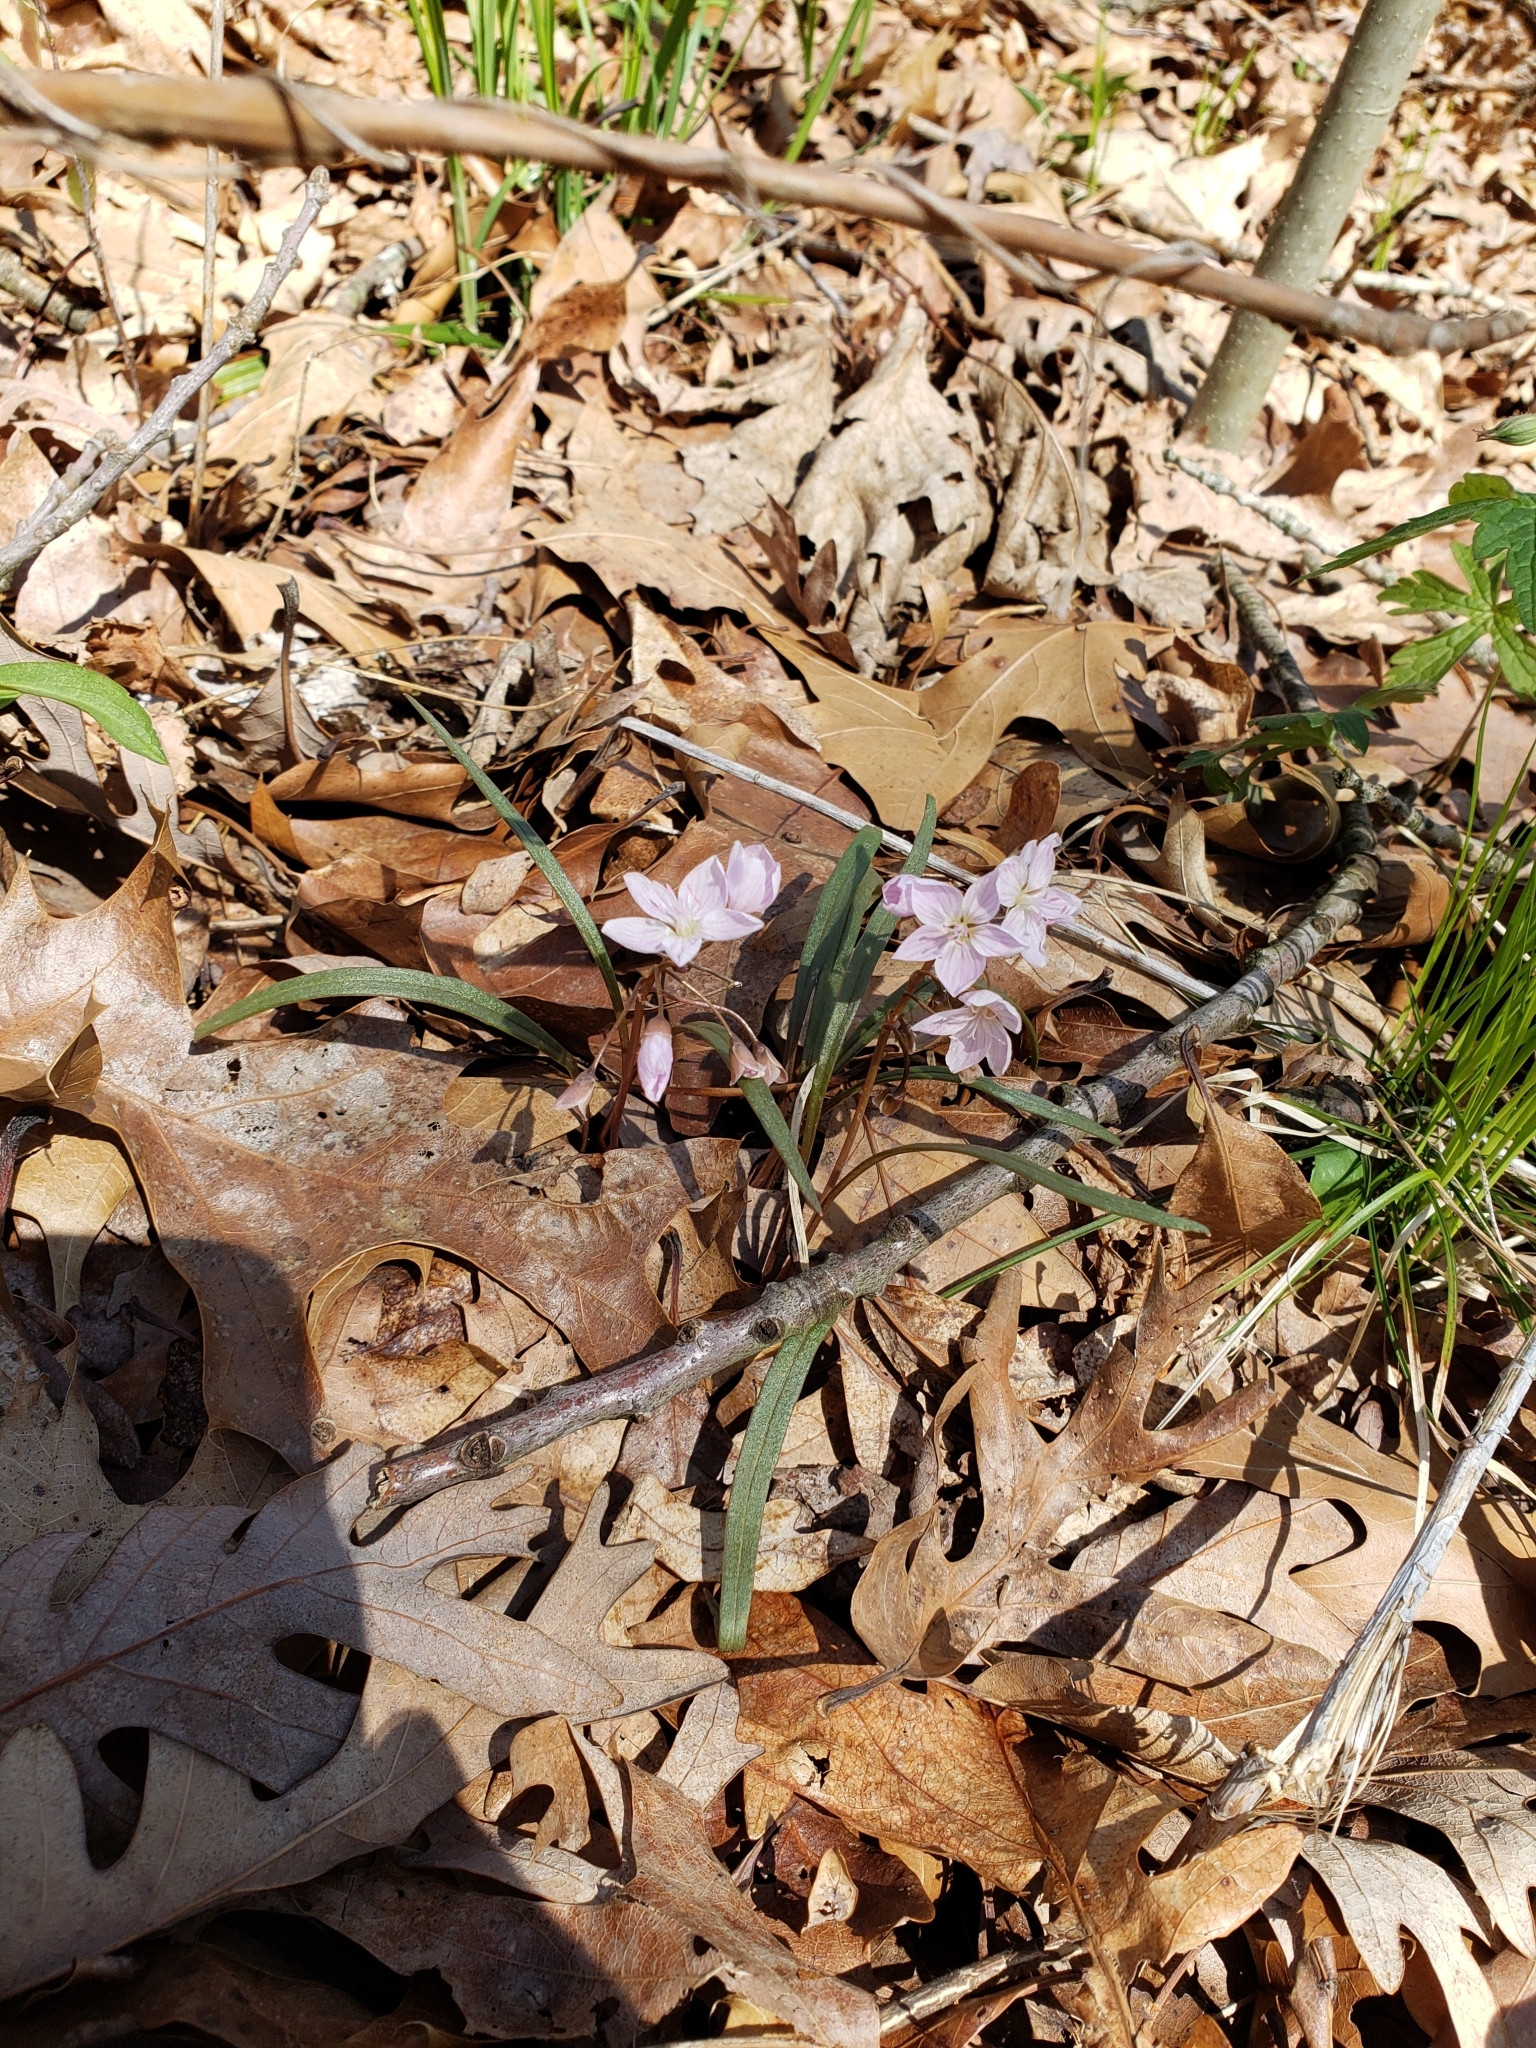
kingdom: Plantae
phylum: Tracheophyta
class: Magnoliopsida
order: Caryophyllales
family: Montiaceae
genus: Claytonia
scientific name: Claytonia virginica
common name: Virginia springbeauty
